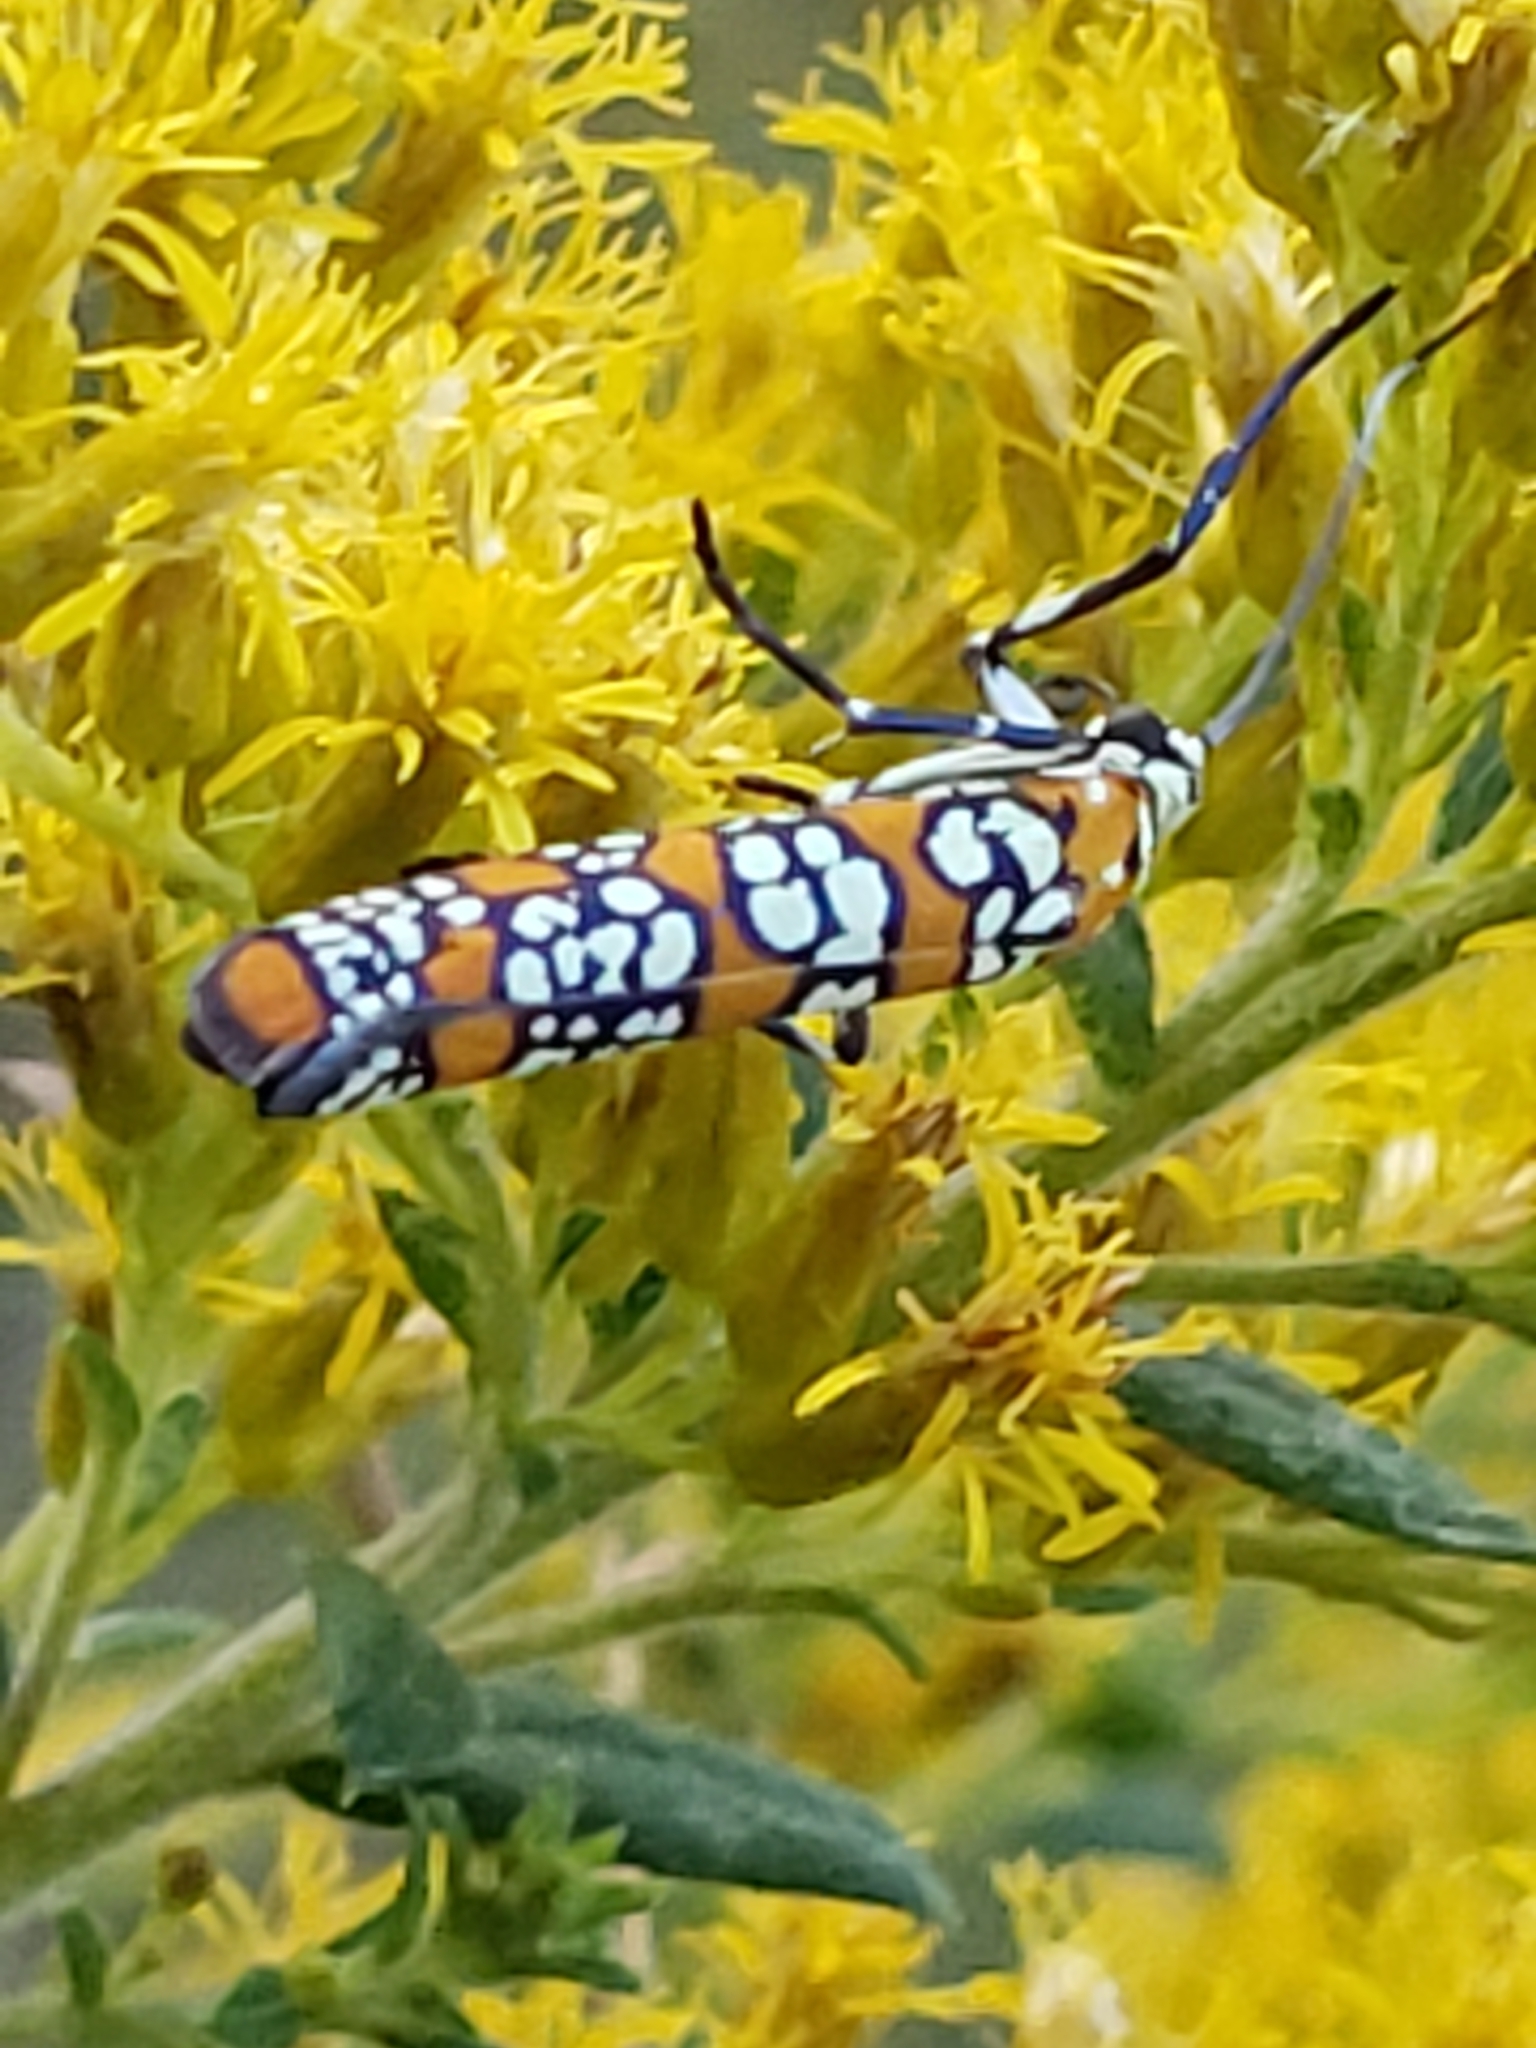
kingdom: Animalia
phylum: Arthropoda
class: Insecta
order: Lepidoptera
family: Attevidae
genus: Atteva
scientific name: Atteva punctella
